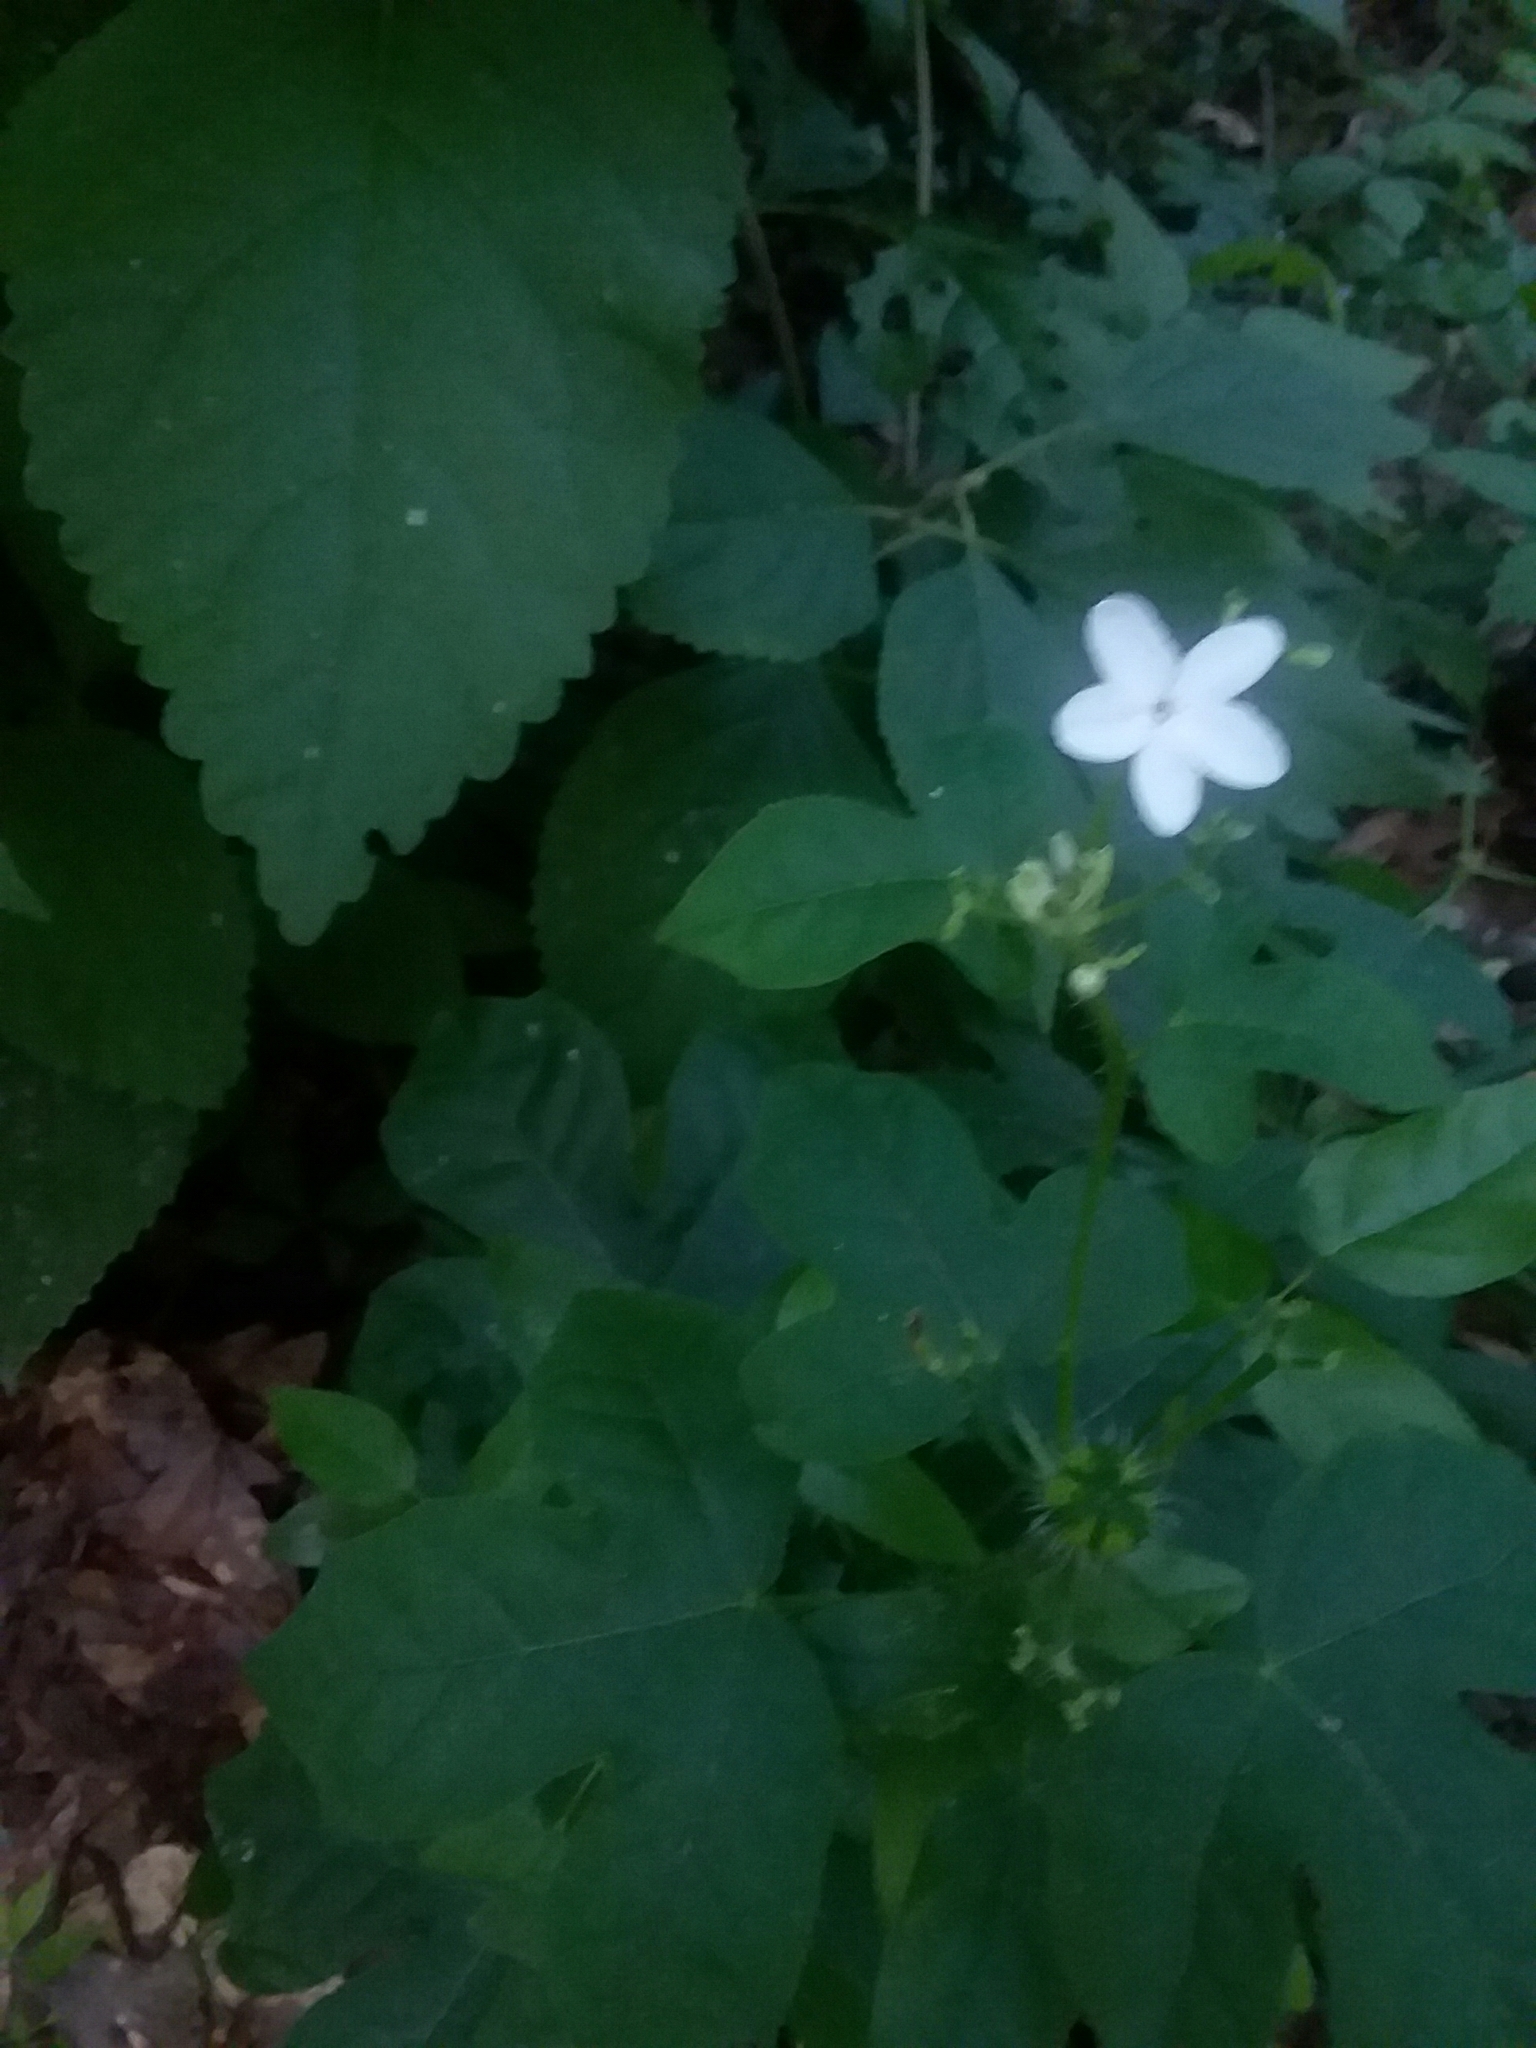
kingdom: Plantae
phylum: Tracheophyta
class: Magnoliopsida
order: Malpighiales
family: Euphorbiaceae
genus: Cnidoscolus
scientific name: Cnidoscolus stimulosus
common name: Bull-nettle
